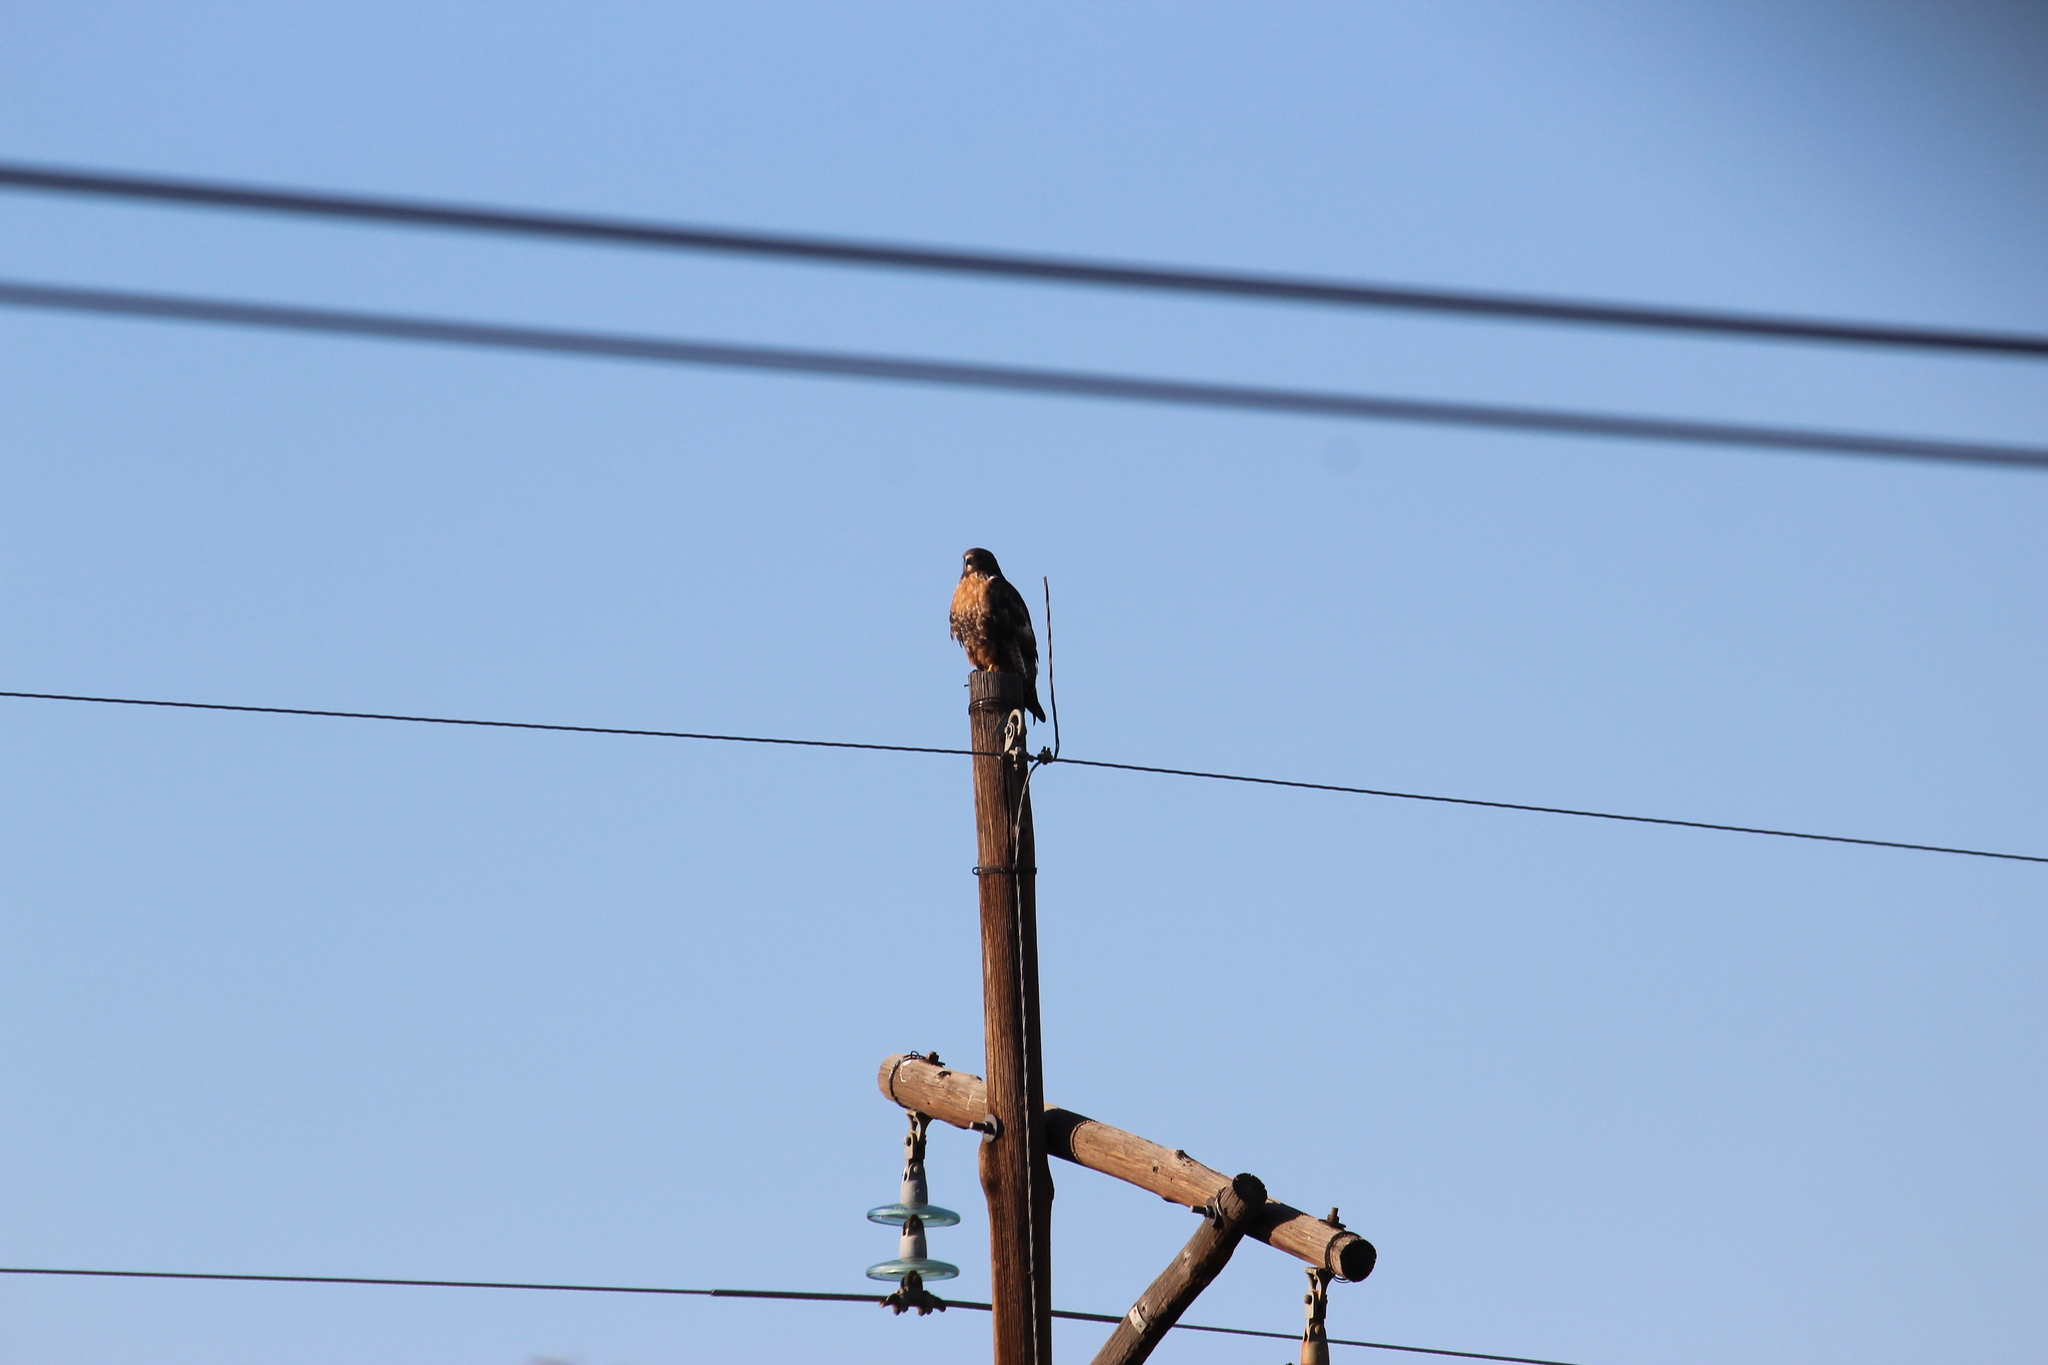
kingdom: Animalia
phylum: Chordata
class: Aves
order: Accipitriformes
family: Accipitridae
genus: Buteo
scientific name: Buteo rufofuscus
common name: Jackal buzzard
